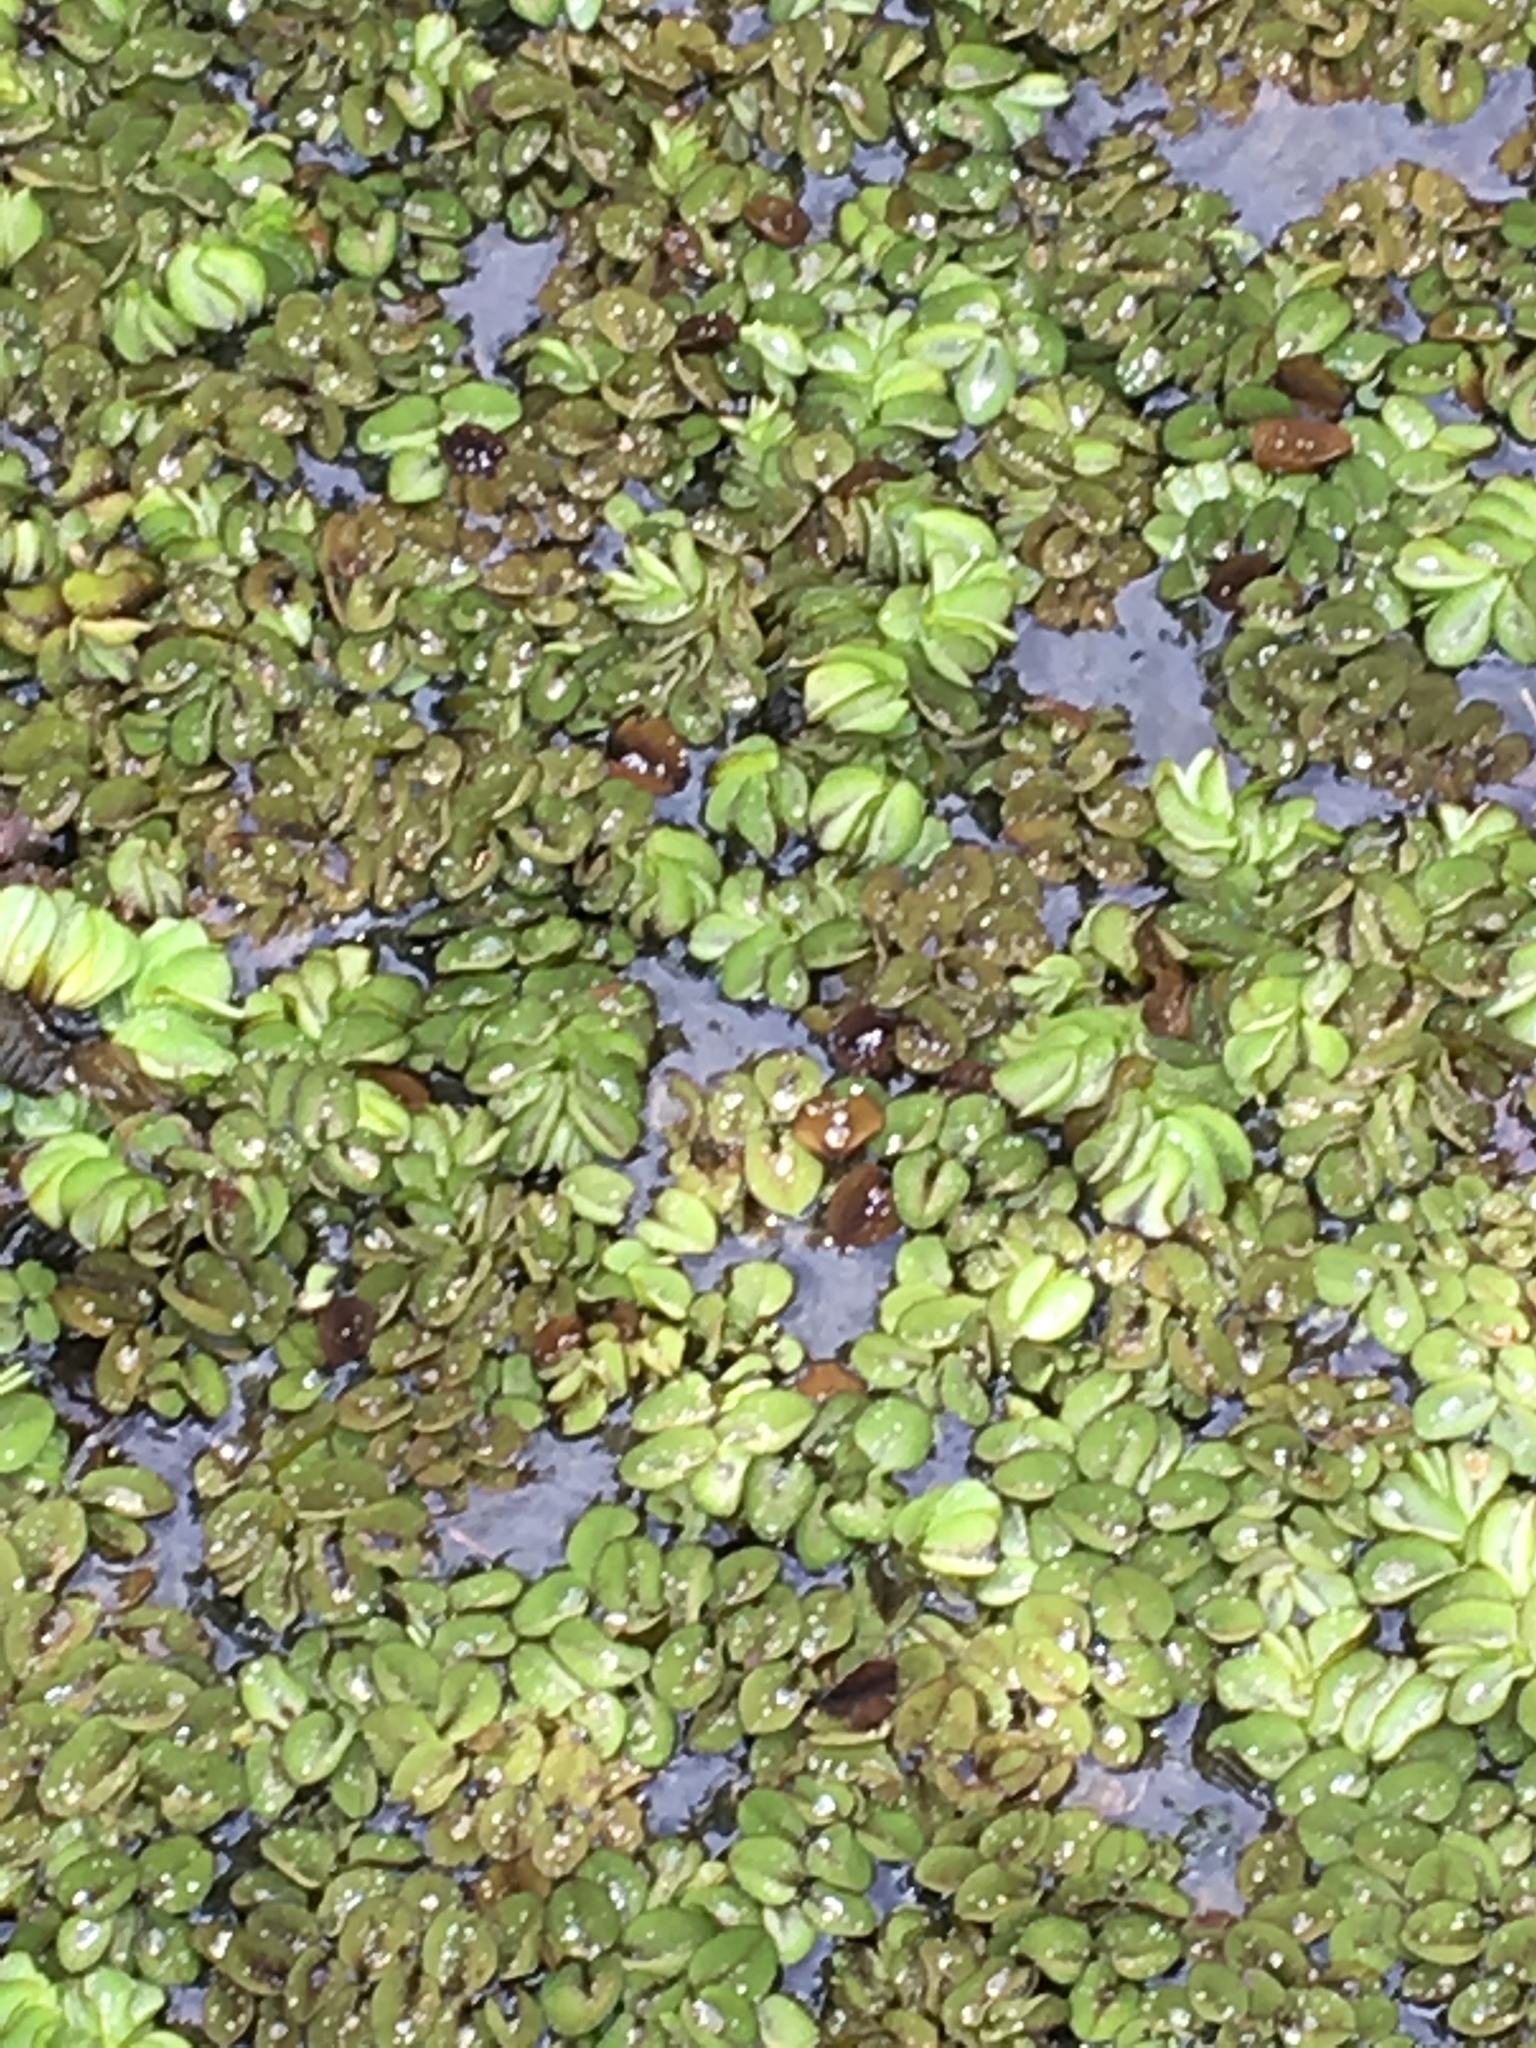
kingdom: Plantae
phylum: Tracheophyta
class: Polypodiopsida
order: Salviniales
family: Salviniaceae
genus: Salvinia
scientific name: Salvinia molesta
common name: Kariba weed
